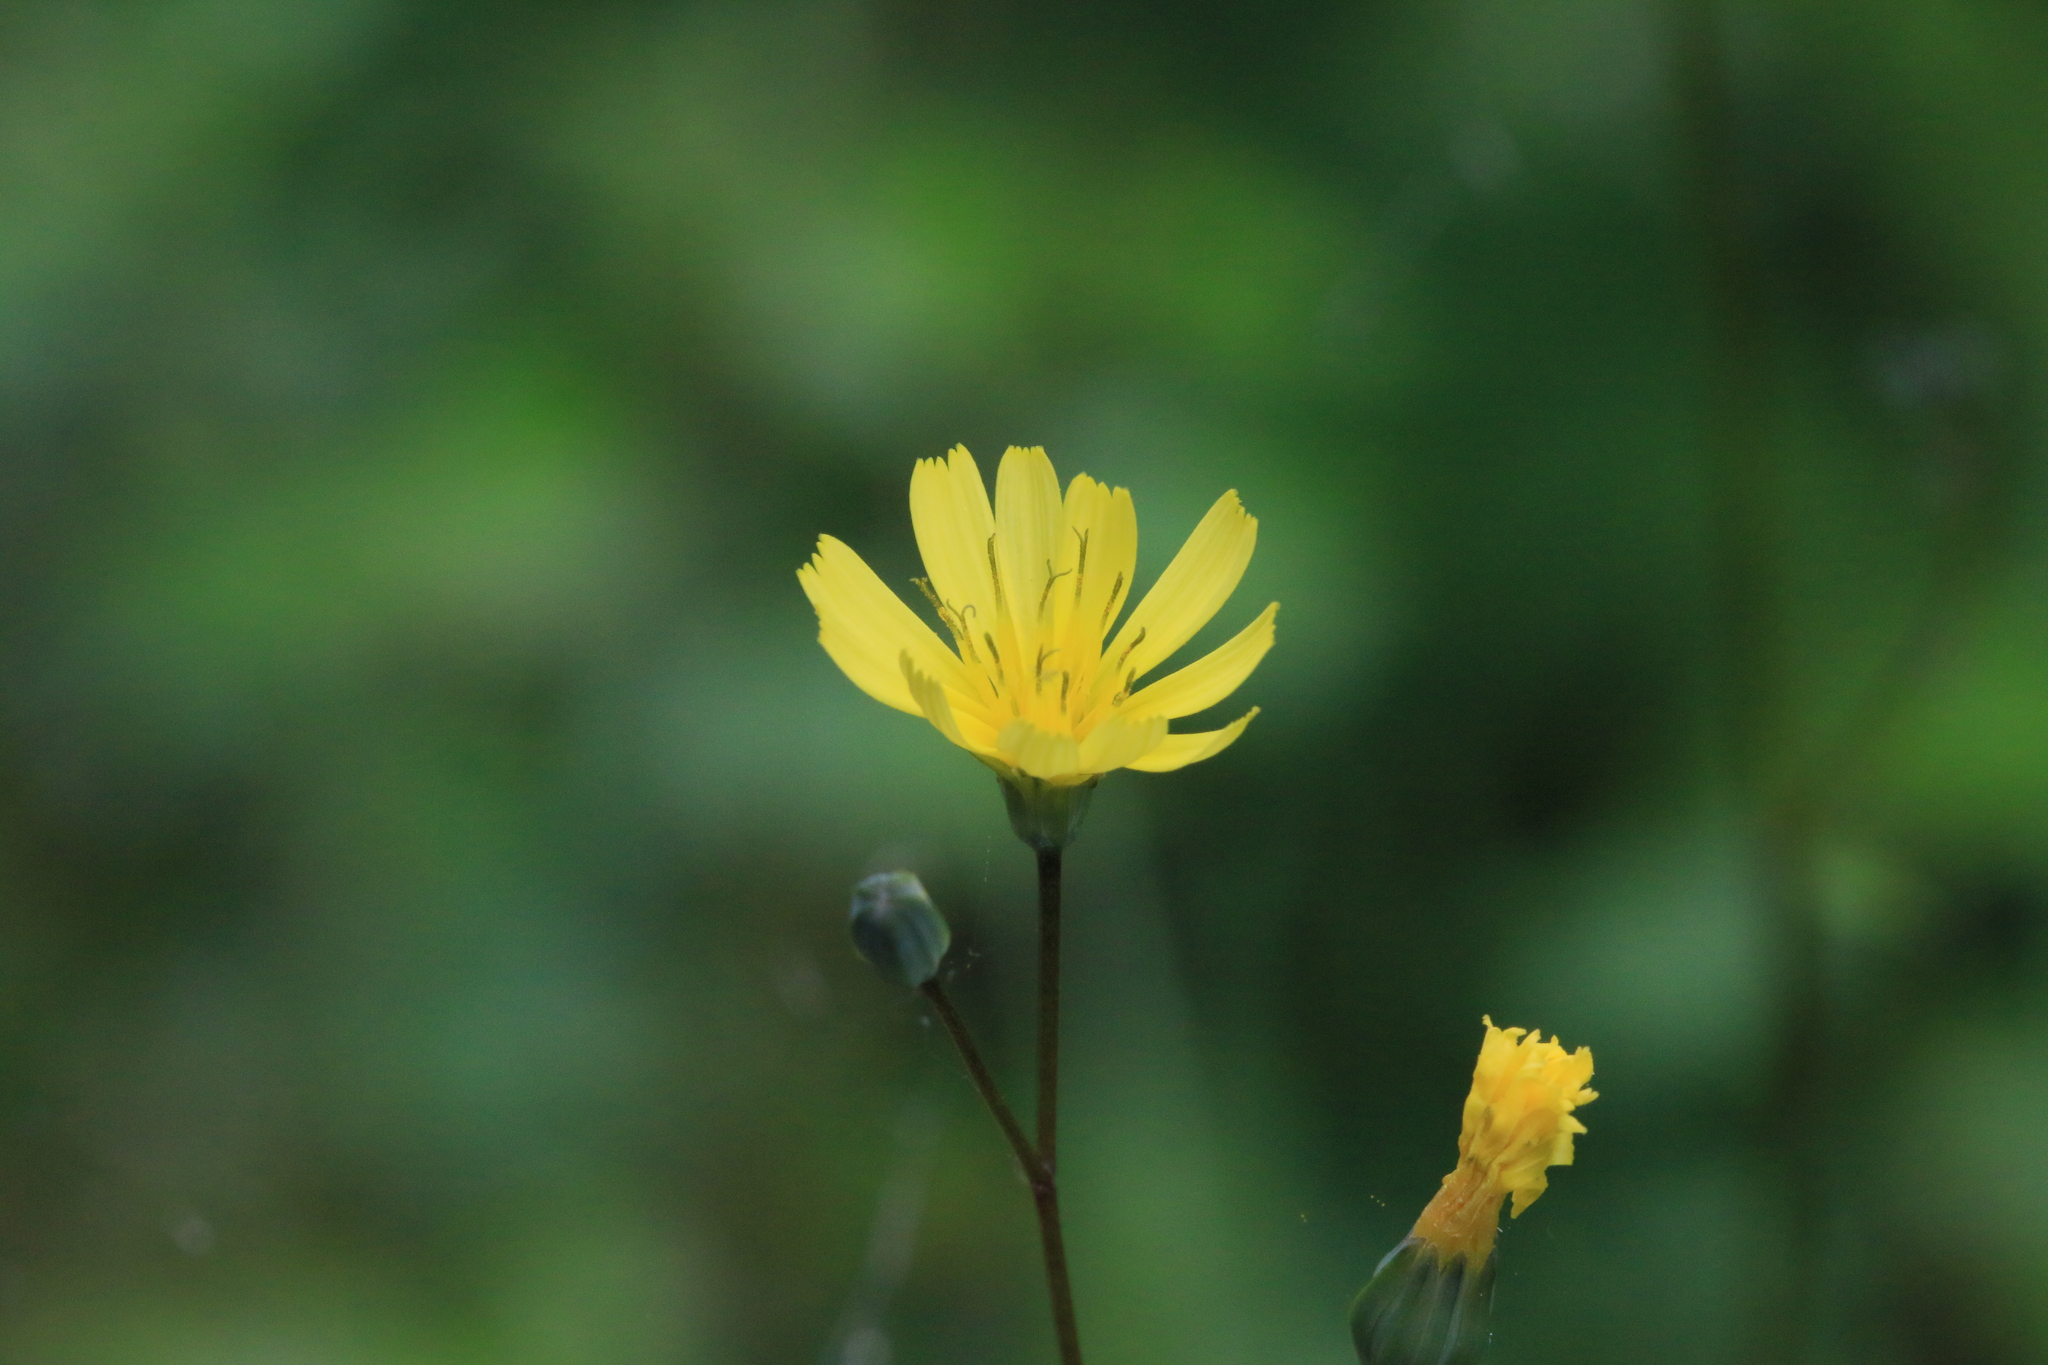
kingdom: Plantae
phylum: Tracheophyta
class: Magnoliopsida
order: Asterales
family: Asteraceae
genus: Lapsana
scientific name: Lapsana communis
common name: Nipplewort
